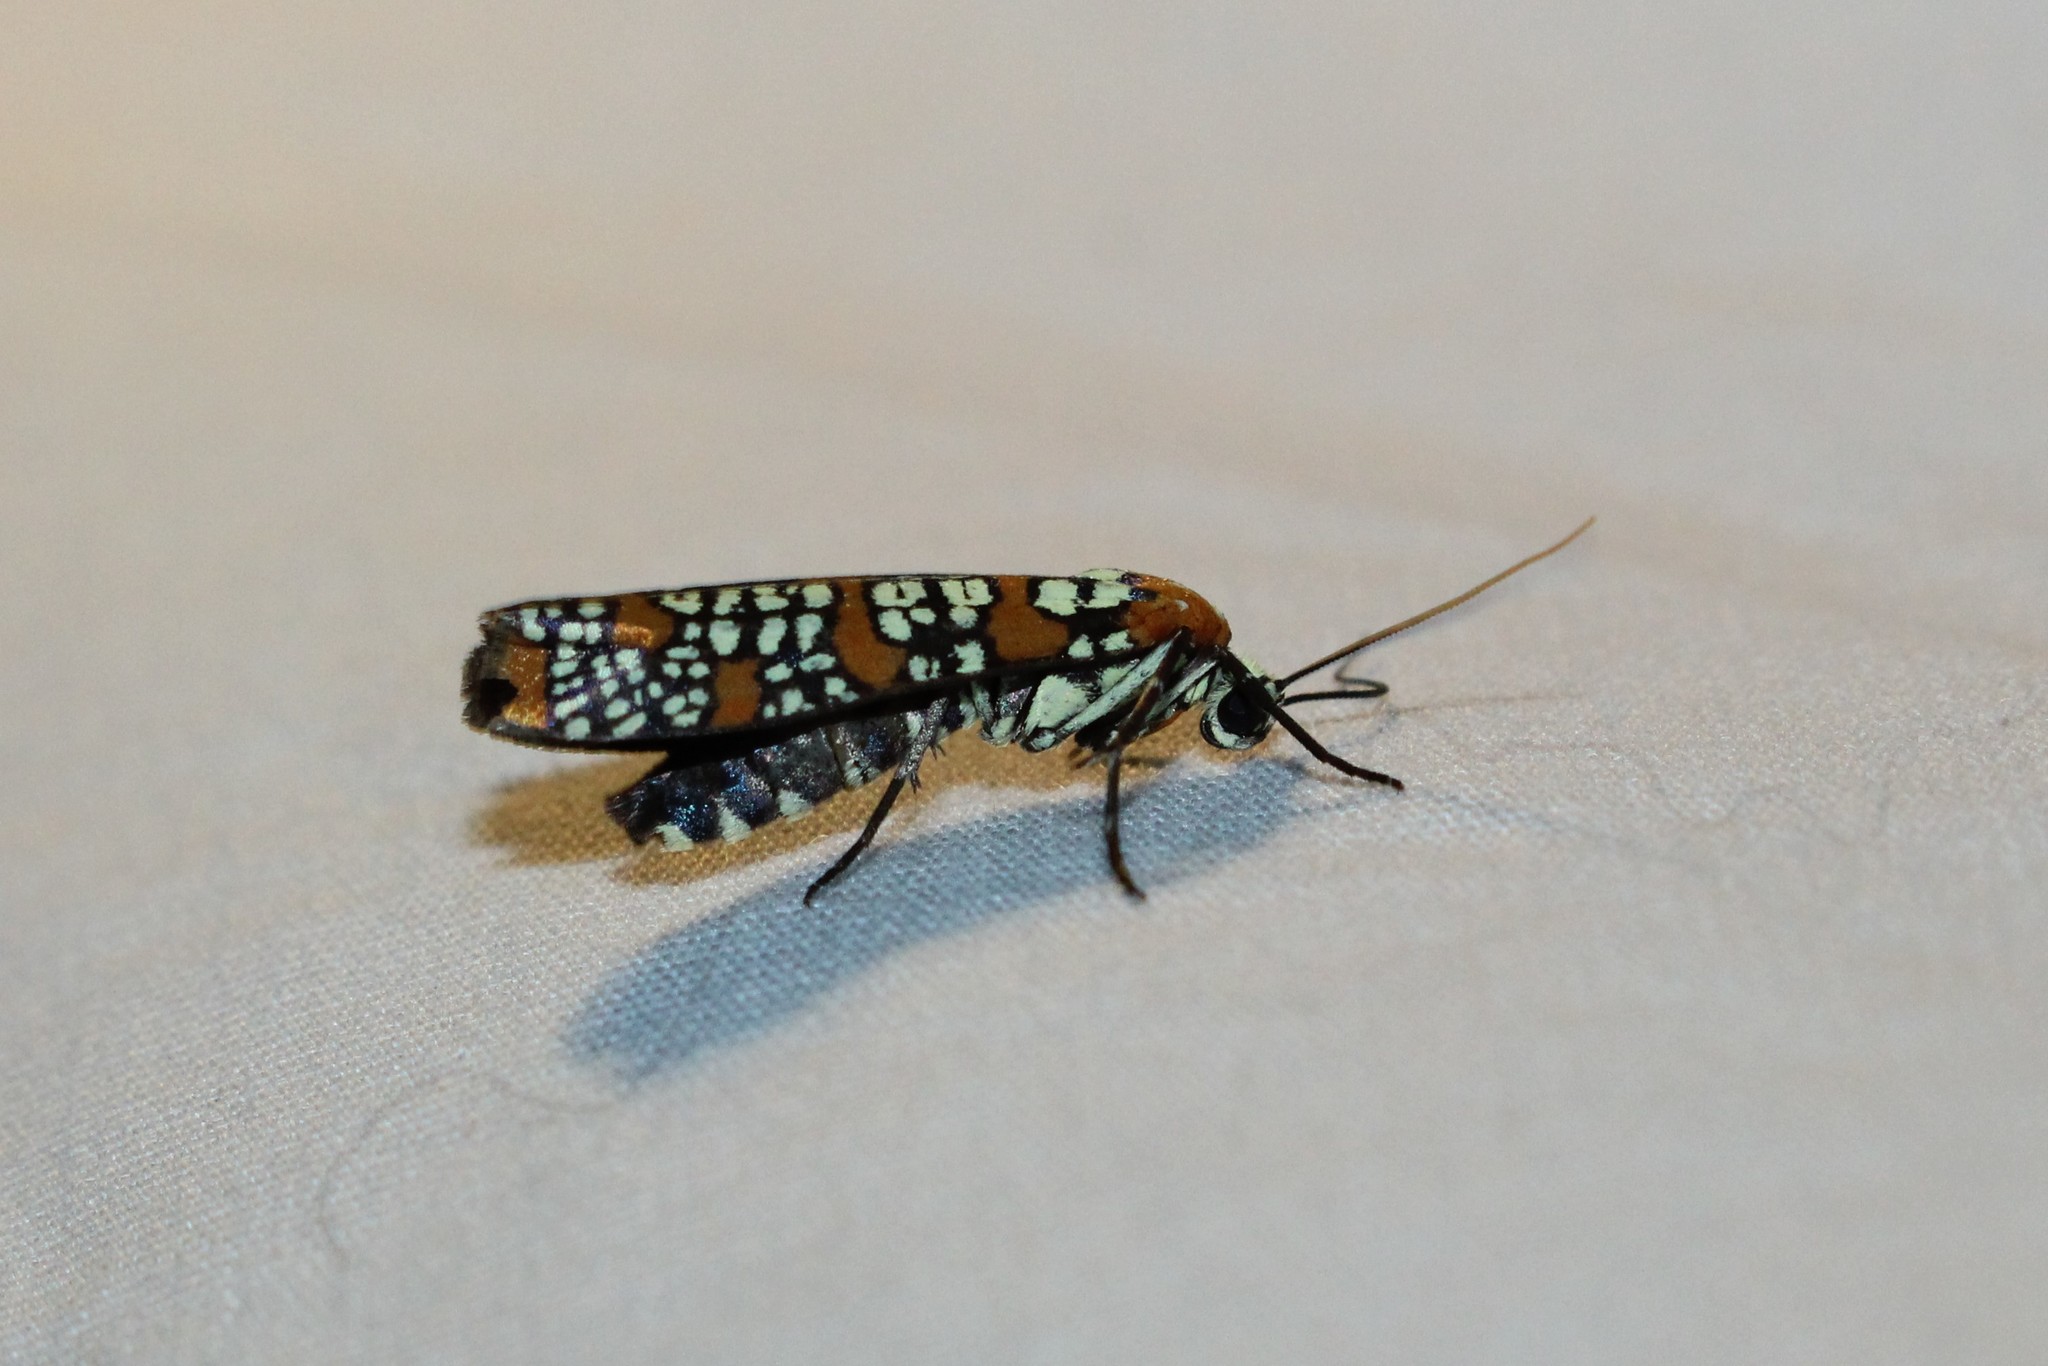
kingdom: Animalia
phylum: Arthropoda
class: Insecta
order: Lepidoptera
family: Attevidae
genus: Atteva
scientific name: Atteva punctella
